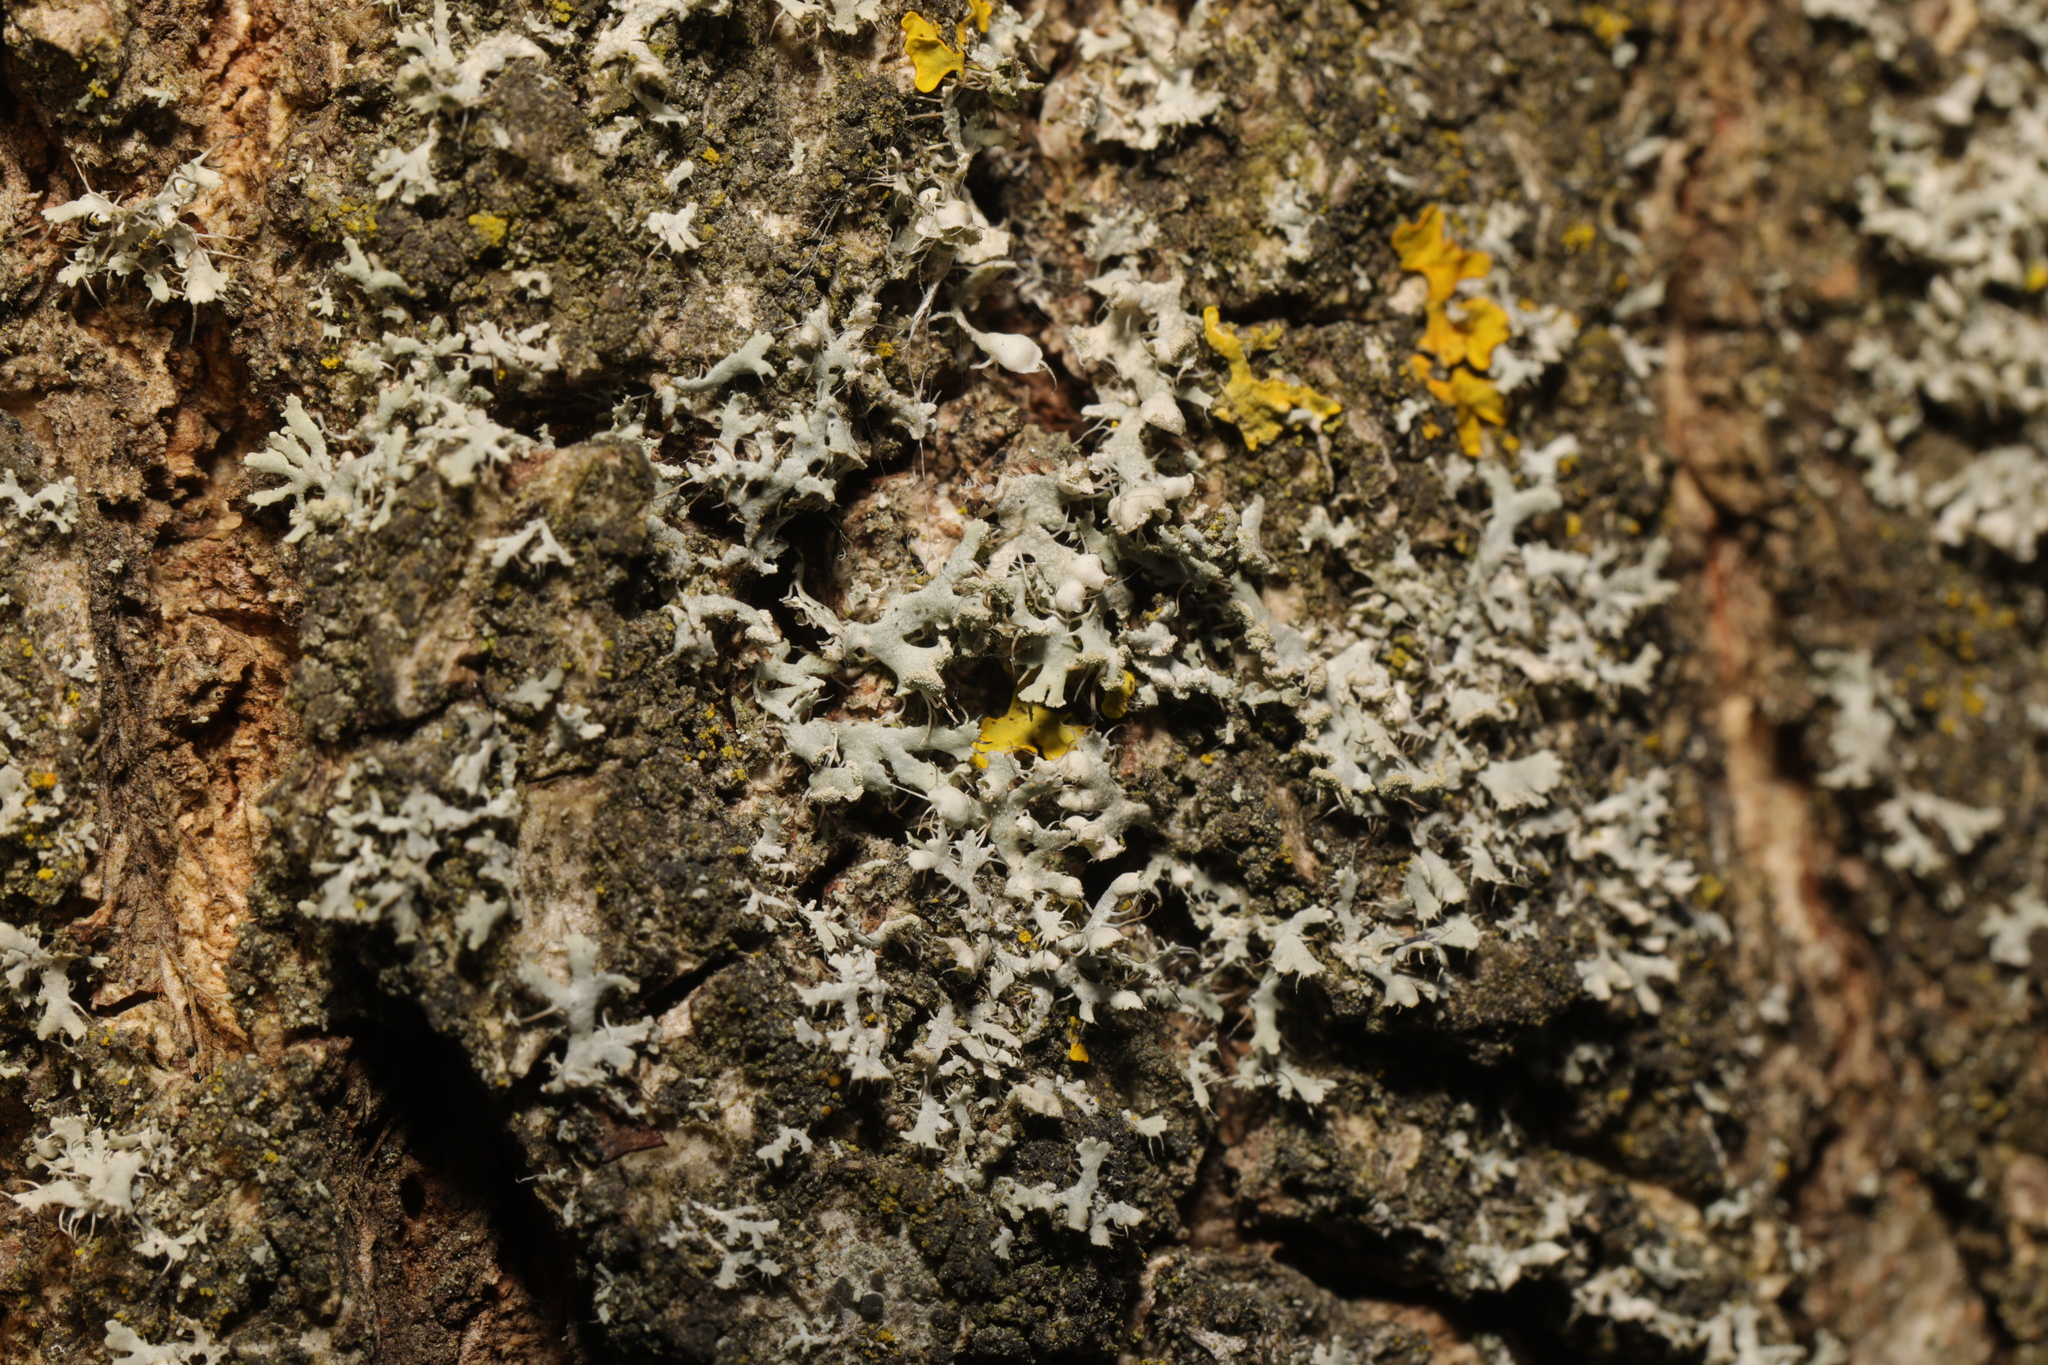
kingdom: Fungi
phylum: Ascomycota
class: Lecanoromycetes
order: Caliciales
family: Physciaceae
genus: Physcia
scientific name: Physcia adscendens
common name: Hooded rosette lichen
